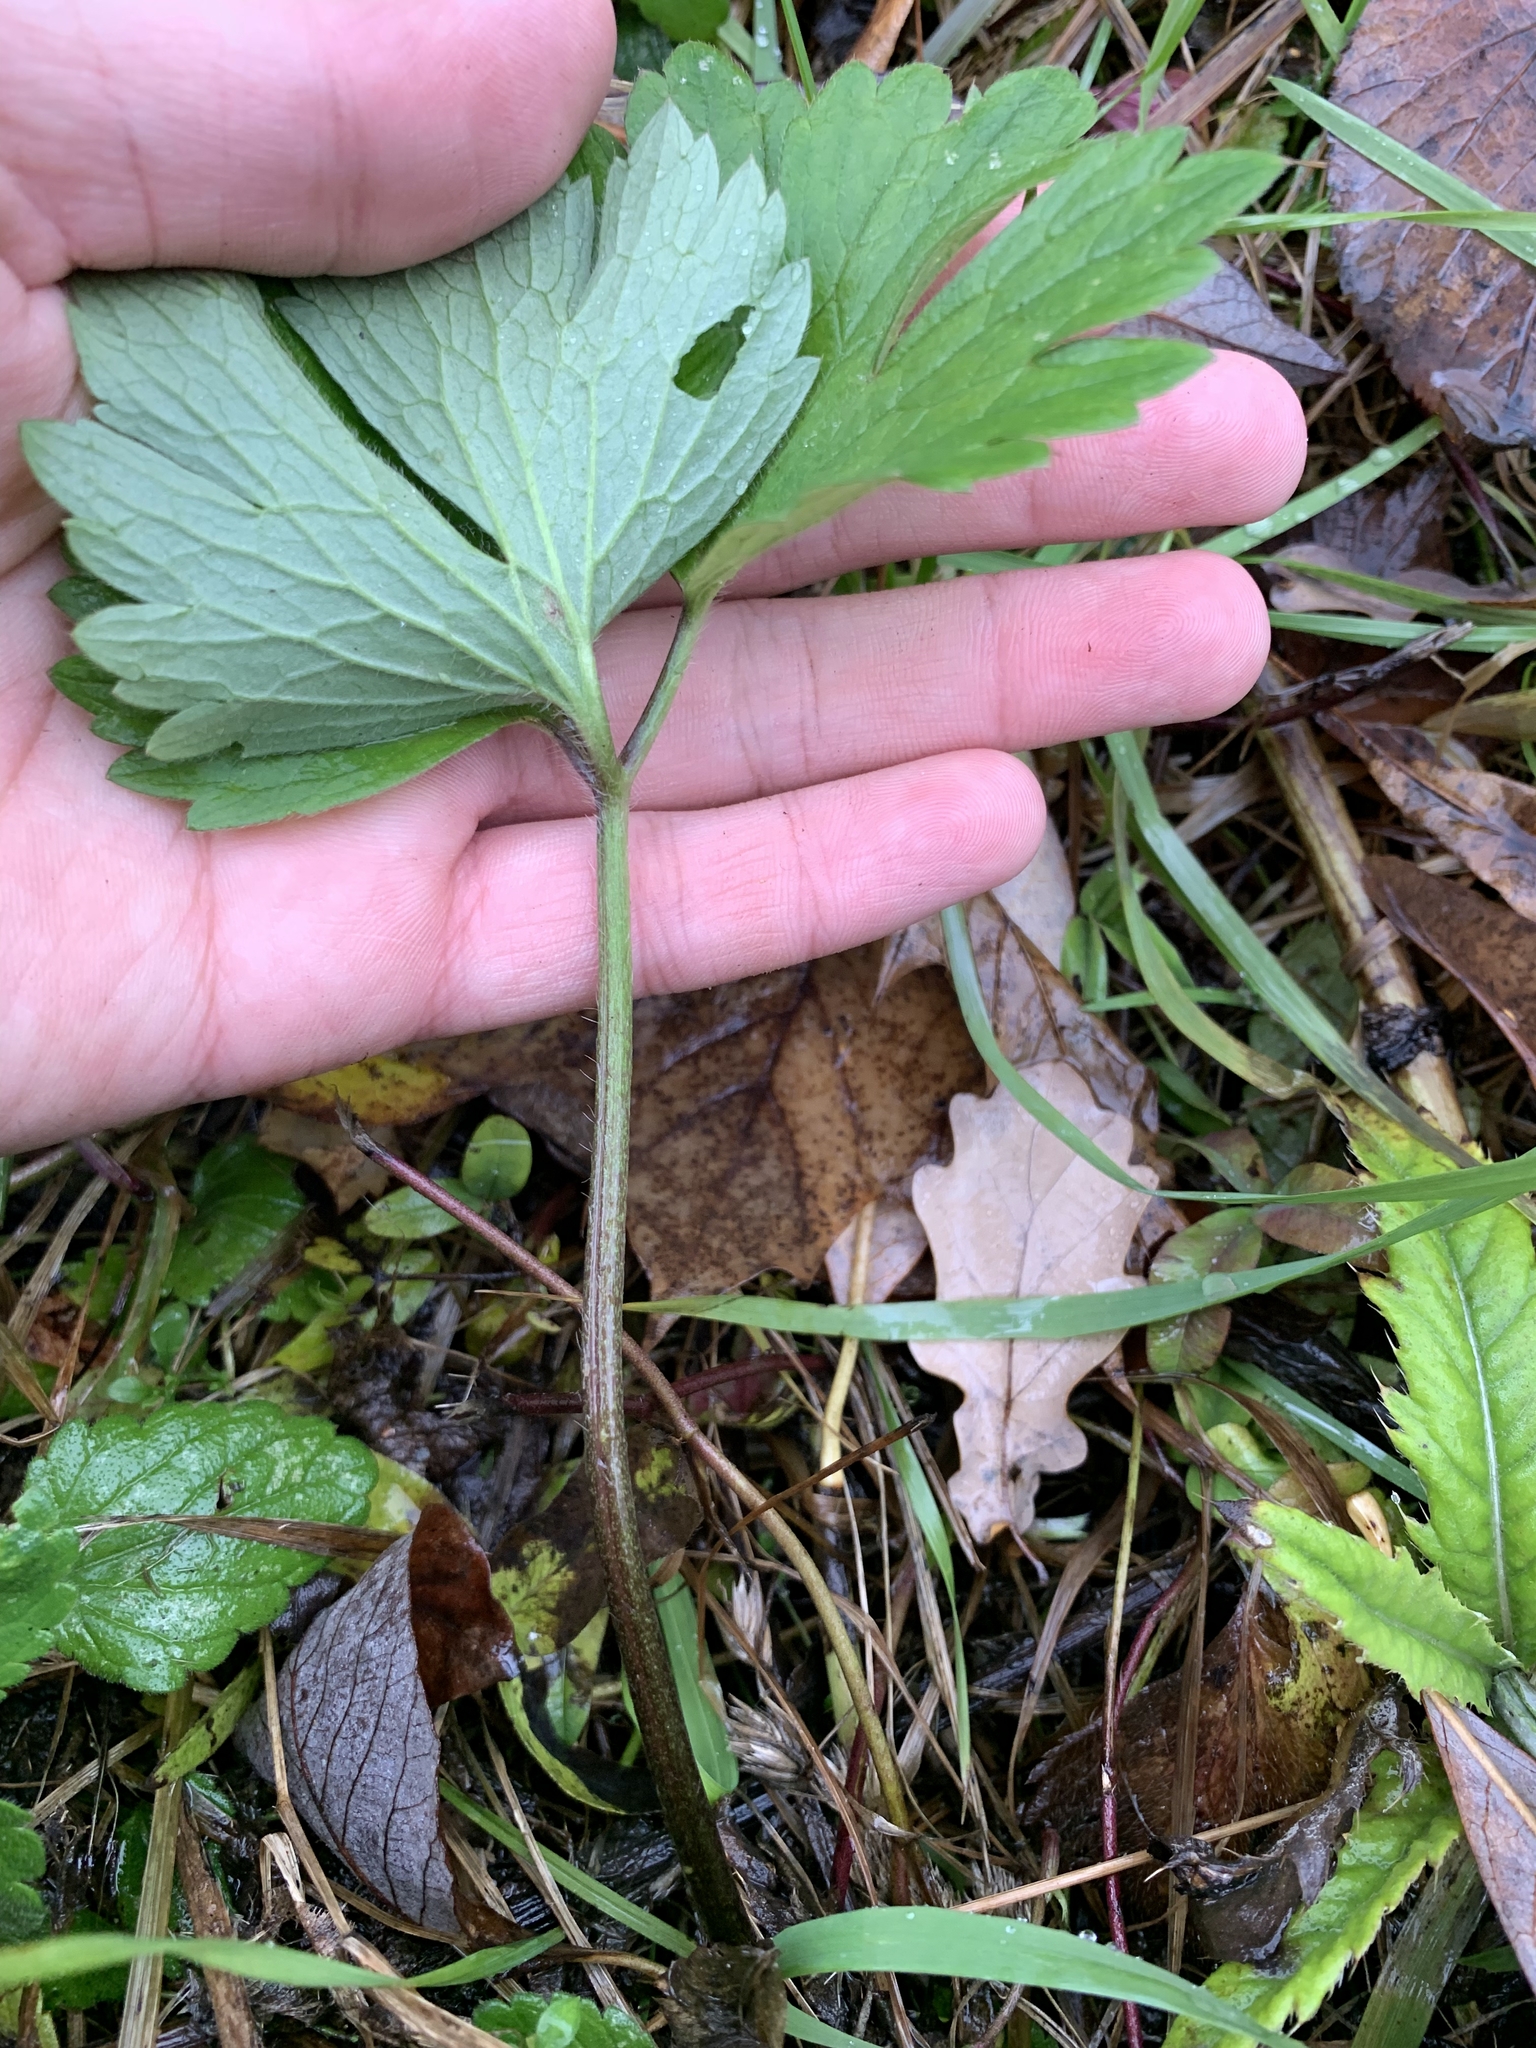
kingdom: Plantae
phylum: Tracheophyta
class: Magnoliopsida
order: Ranunculales
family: Ranunculaceae
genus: Ranunculus
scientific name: Ranunculus repens
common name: Creeping buttercup
